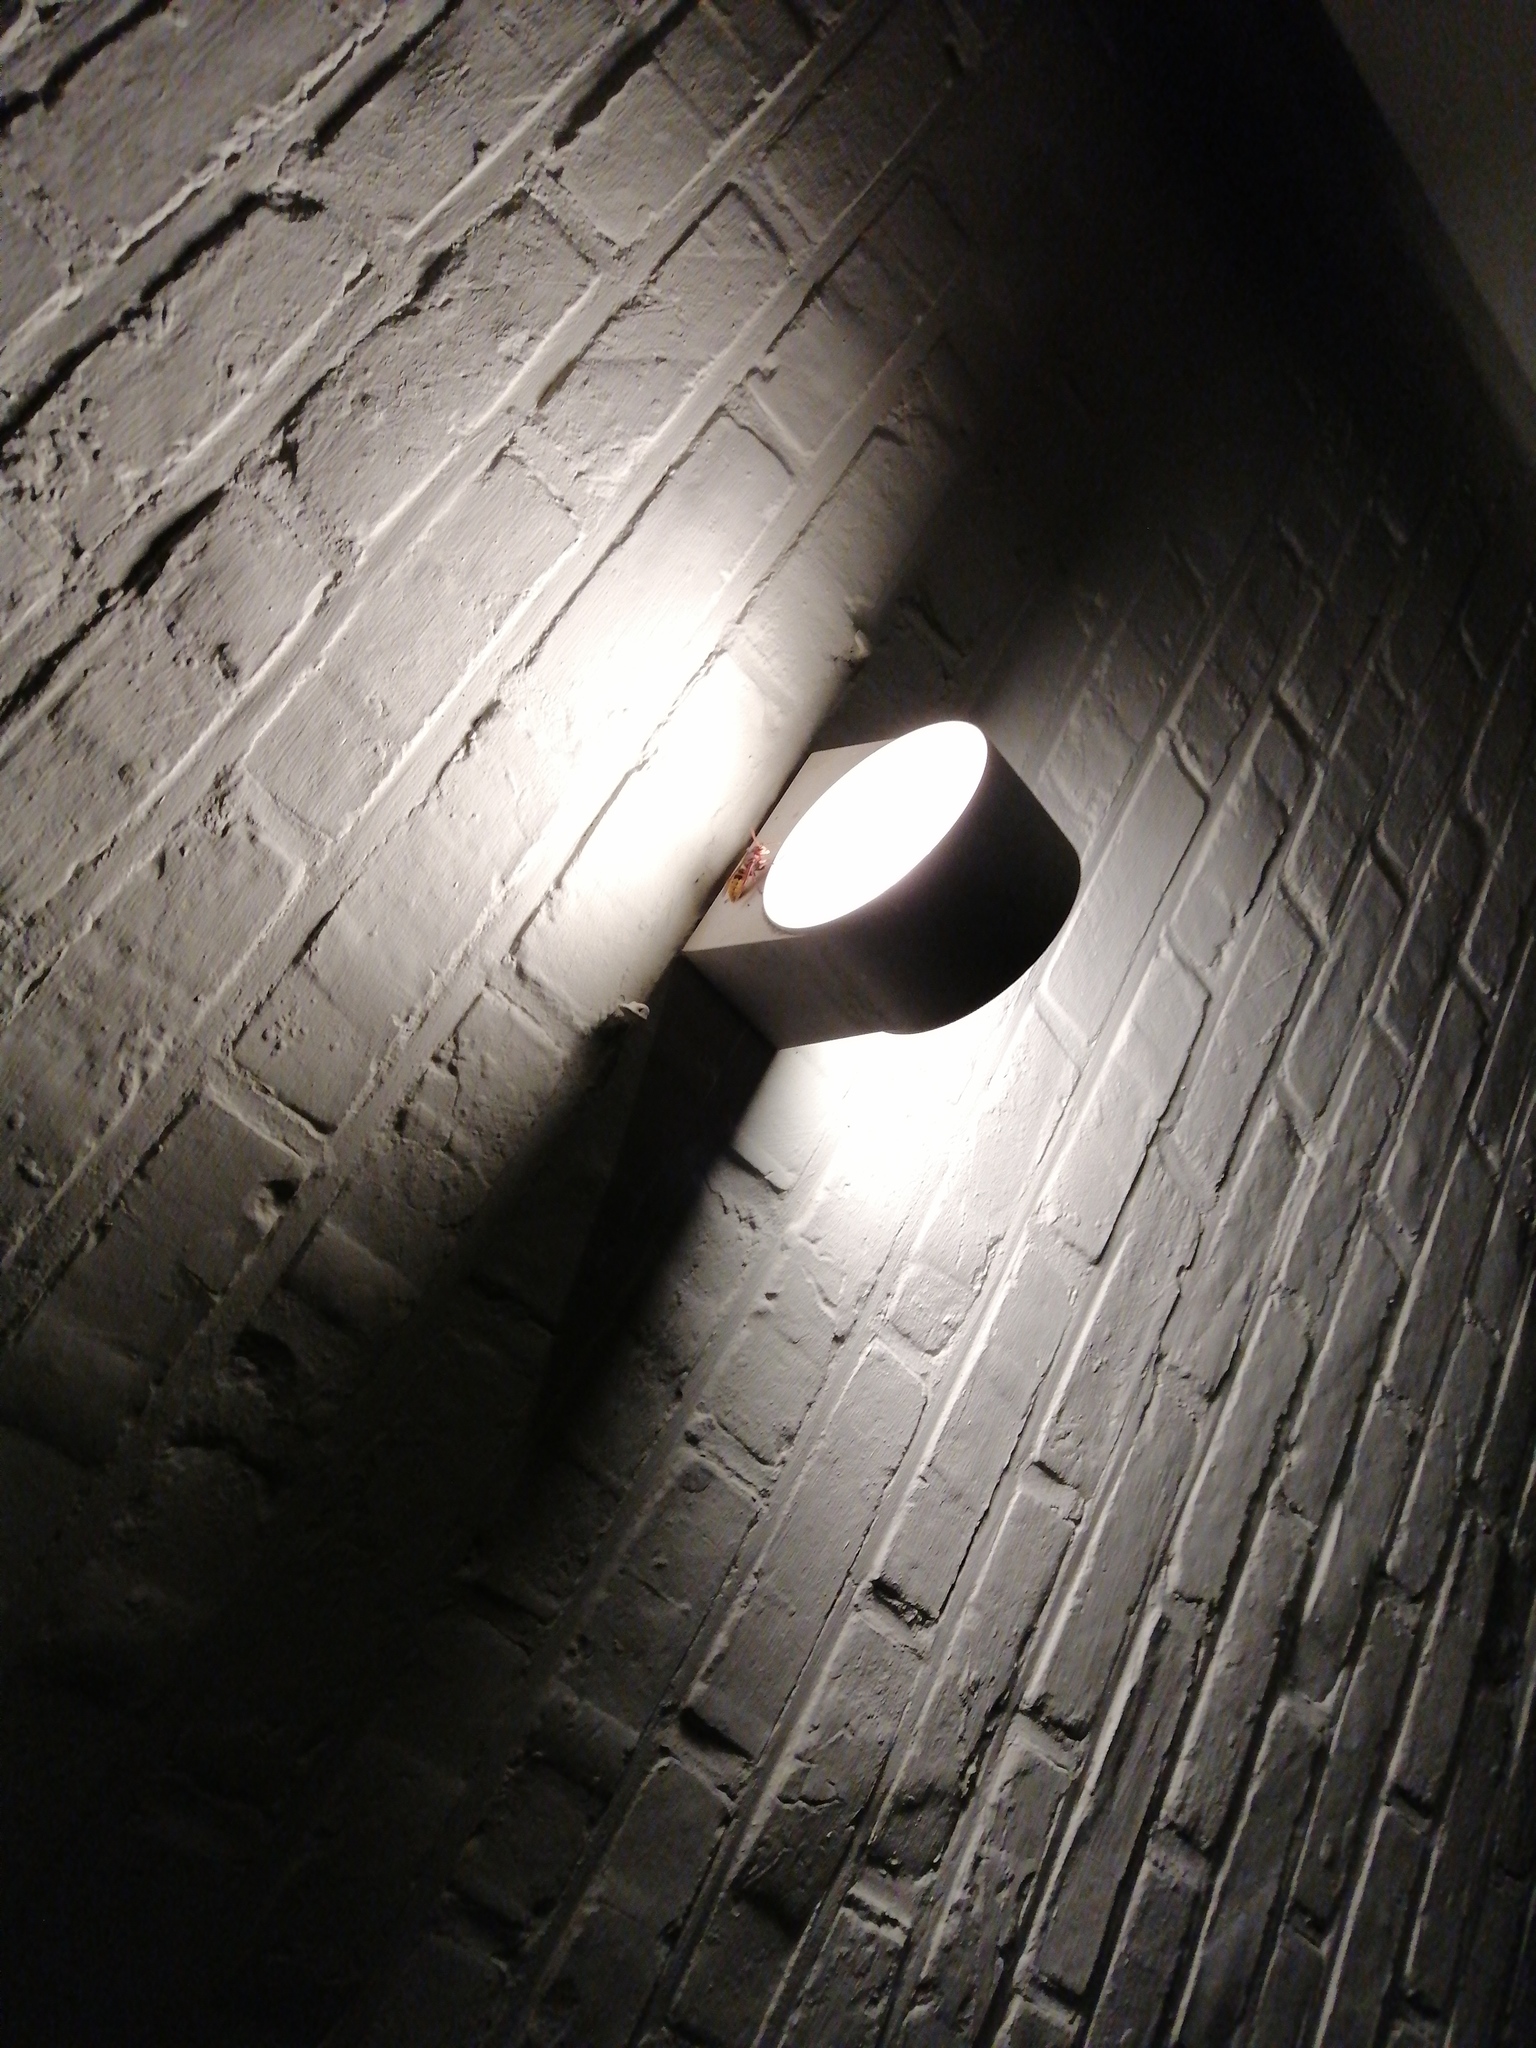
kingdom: Animalia
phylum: Arthropoda
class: Insecta
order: Hymenoptera
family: Vespidae
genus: Vespa
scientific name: Vespa crabro
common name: Hornet
